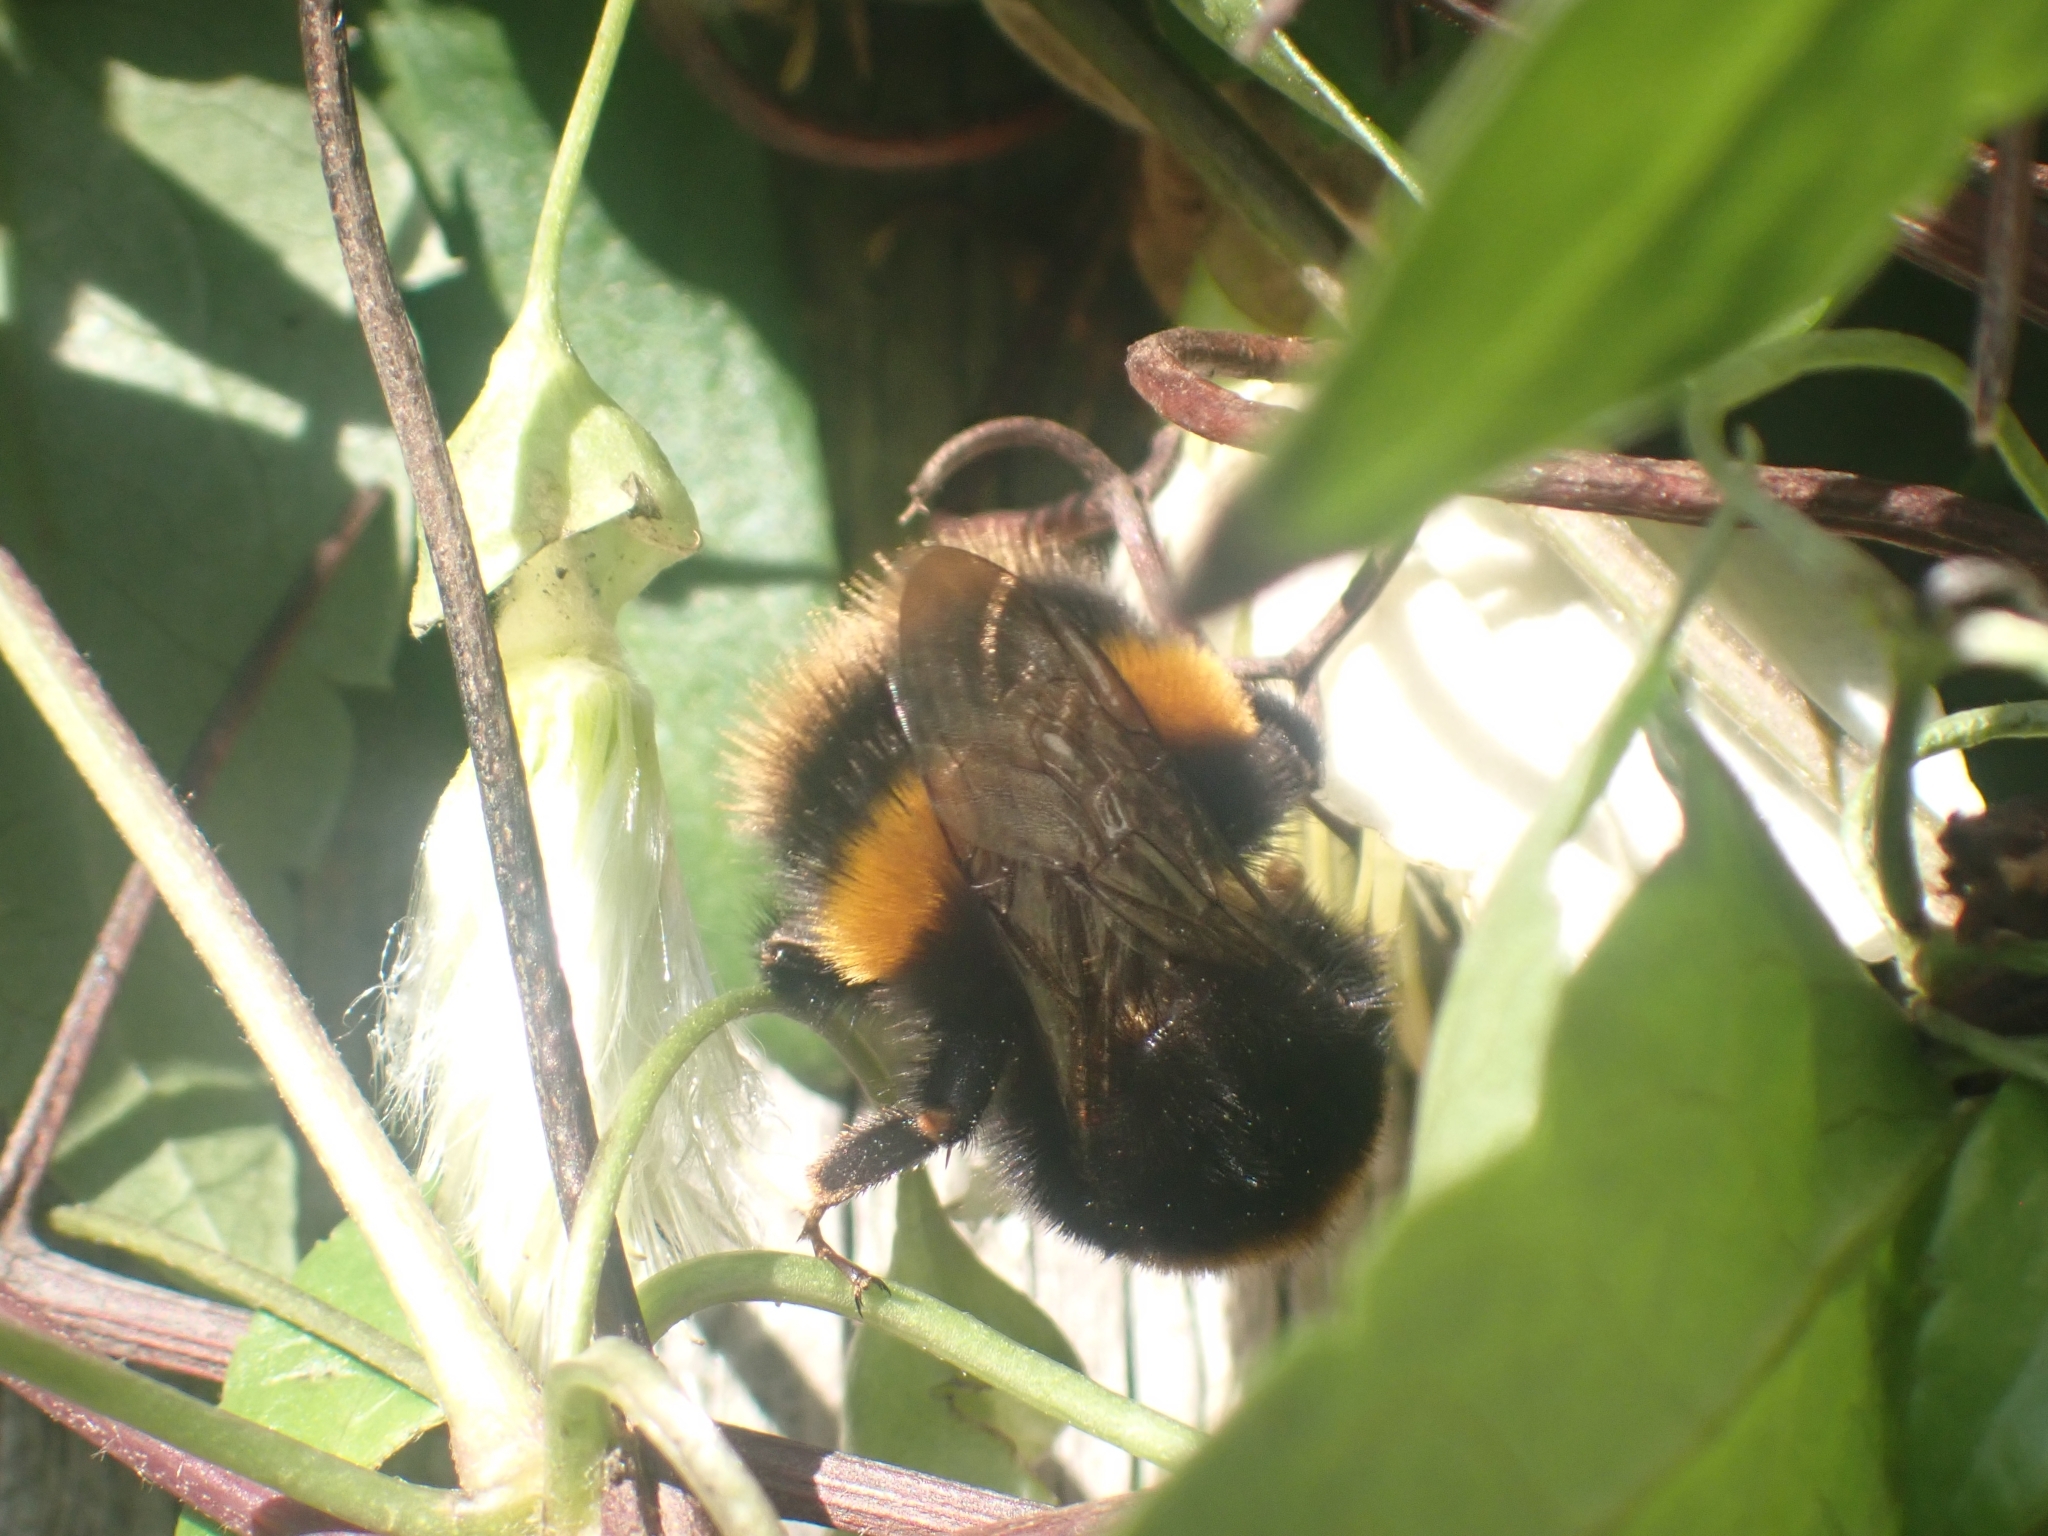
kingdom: Animalia
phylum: Arthropoda
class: Insecta
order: Hymenoptera
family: Apidae
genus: Bombus
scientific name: Bombus terrestris
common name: Buff-tailed bumblebee
